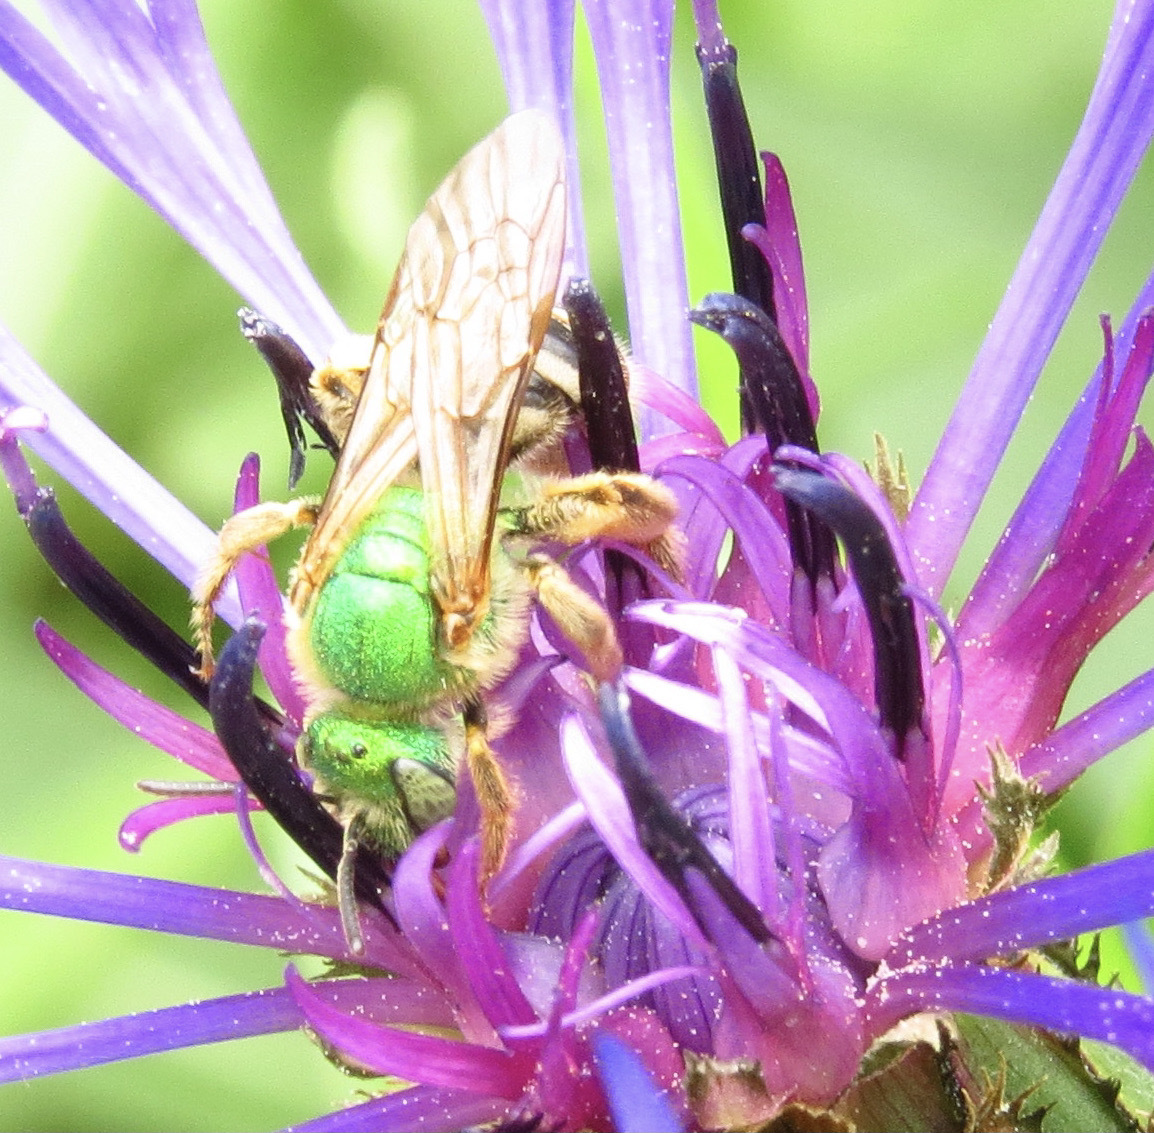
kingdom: Animalia
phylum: Arthropoda
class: Insecta
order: Hymenoptera
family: Halictidae
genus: Agapostemon
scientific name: Agapostemon virescens
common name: Bicolored striped sweat bee
